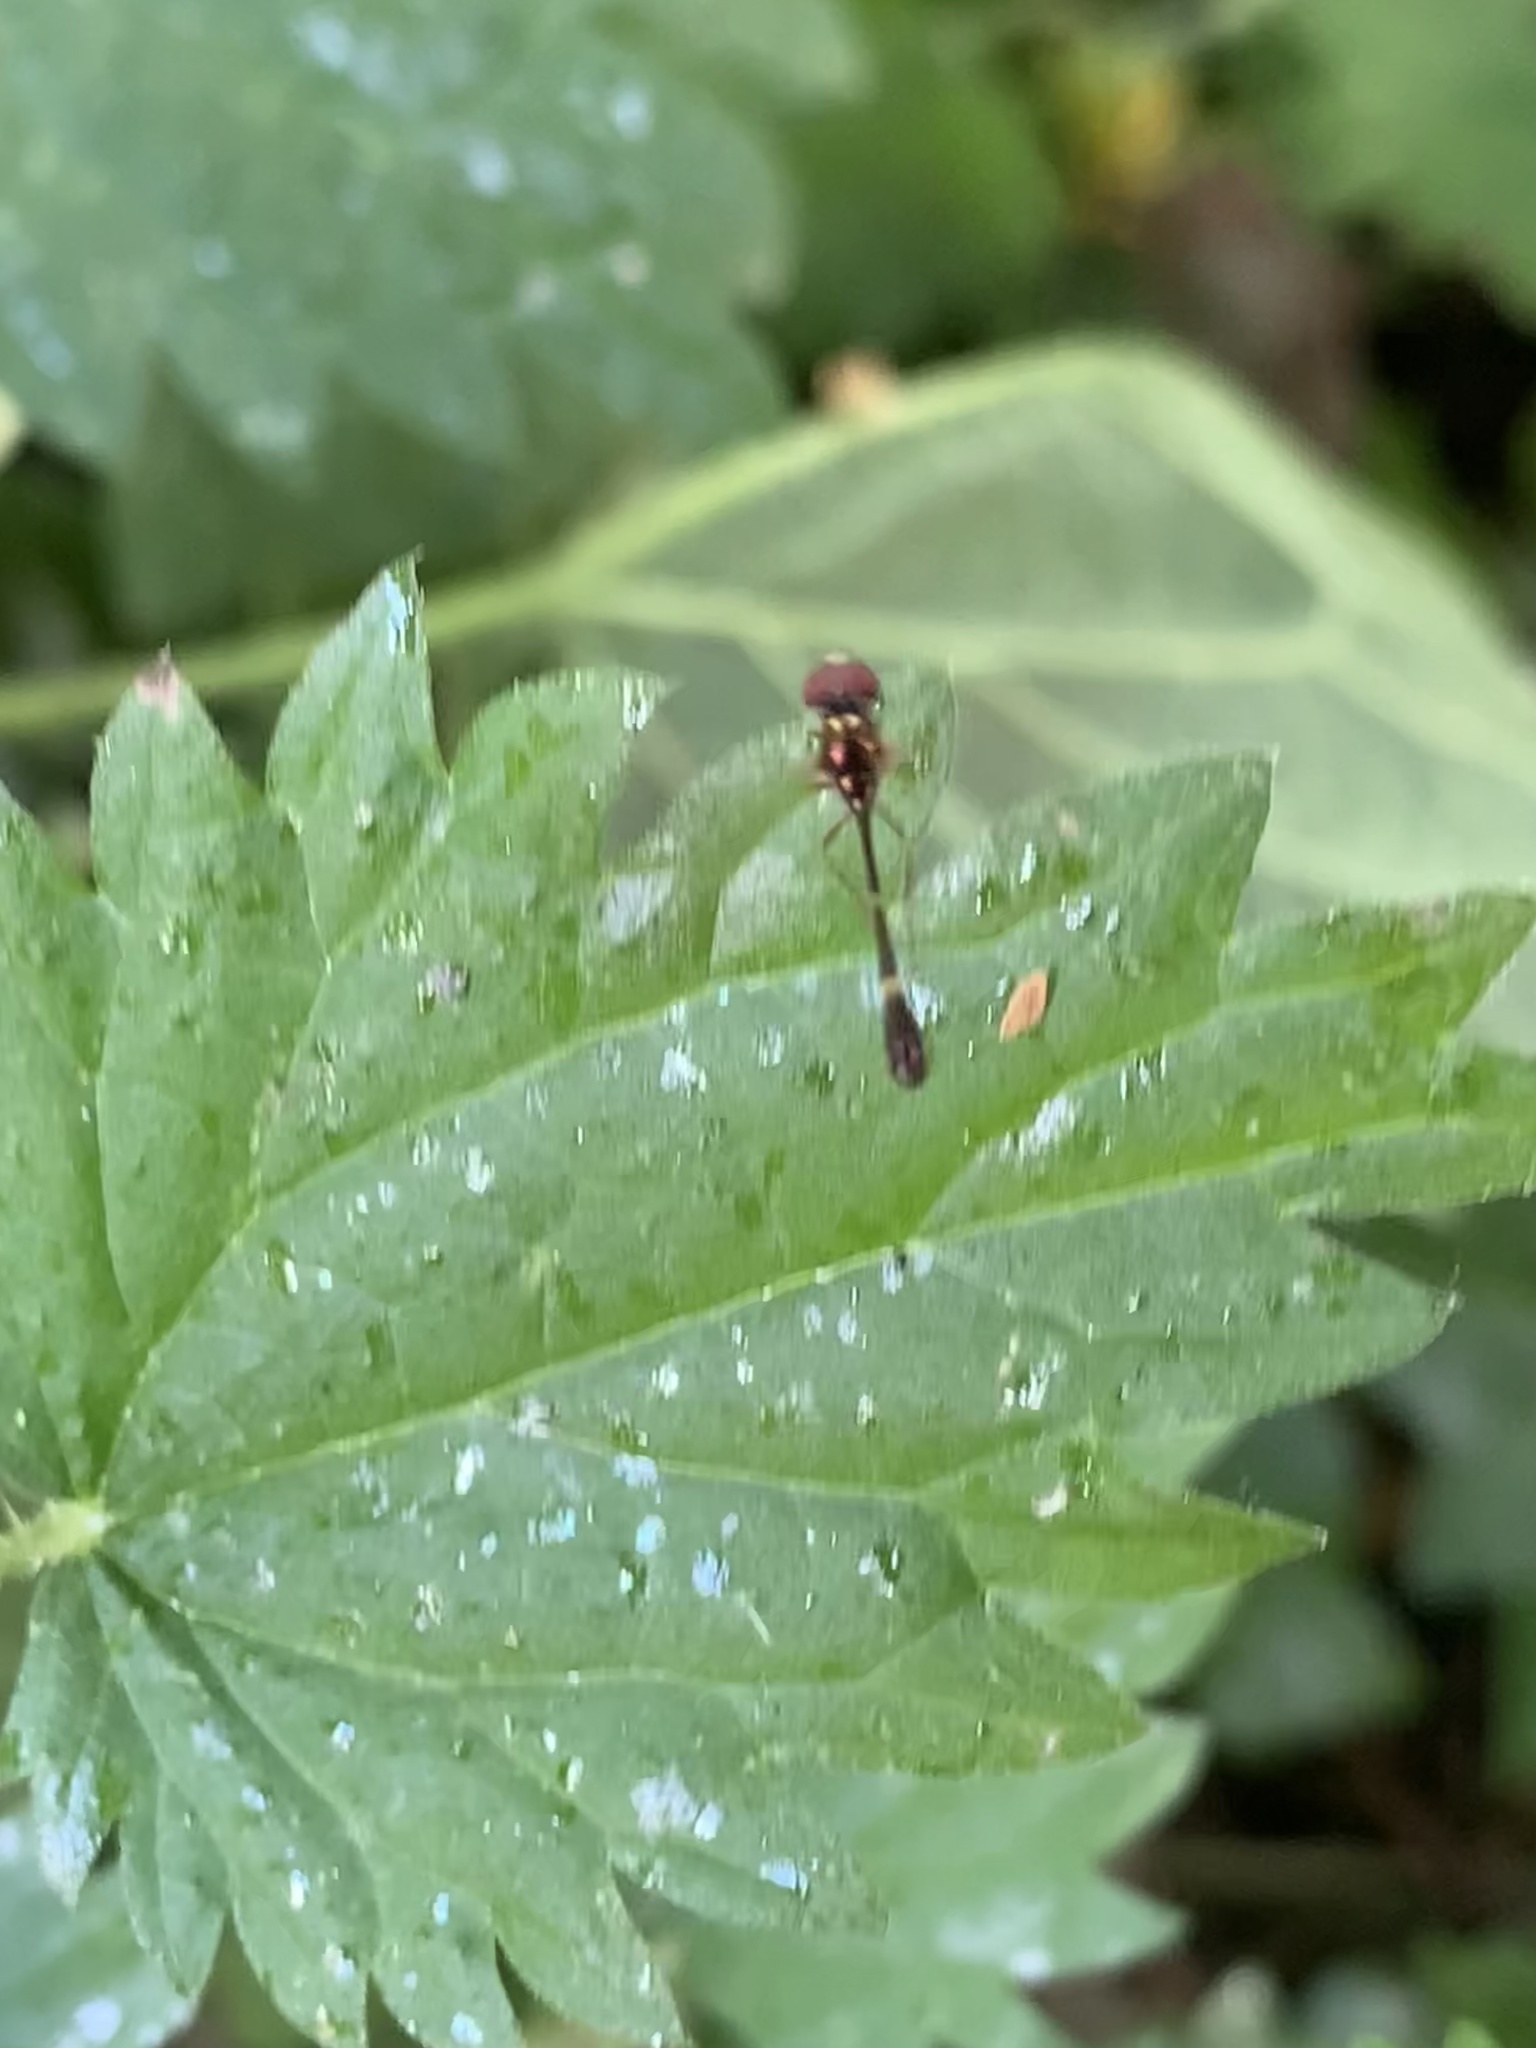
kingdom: Animalia
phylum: Arthropoda
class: Insecta
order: Diptera
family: Syrphidae
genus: Baccha
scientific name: Baccha elongata
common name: Common dainty
